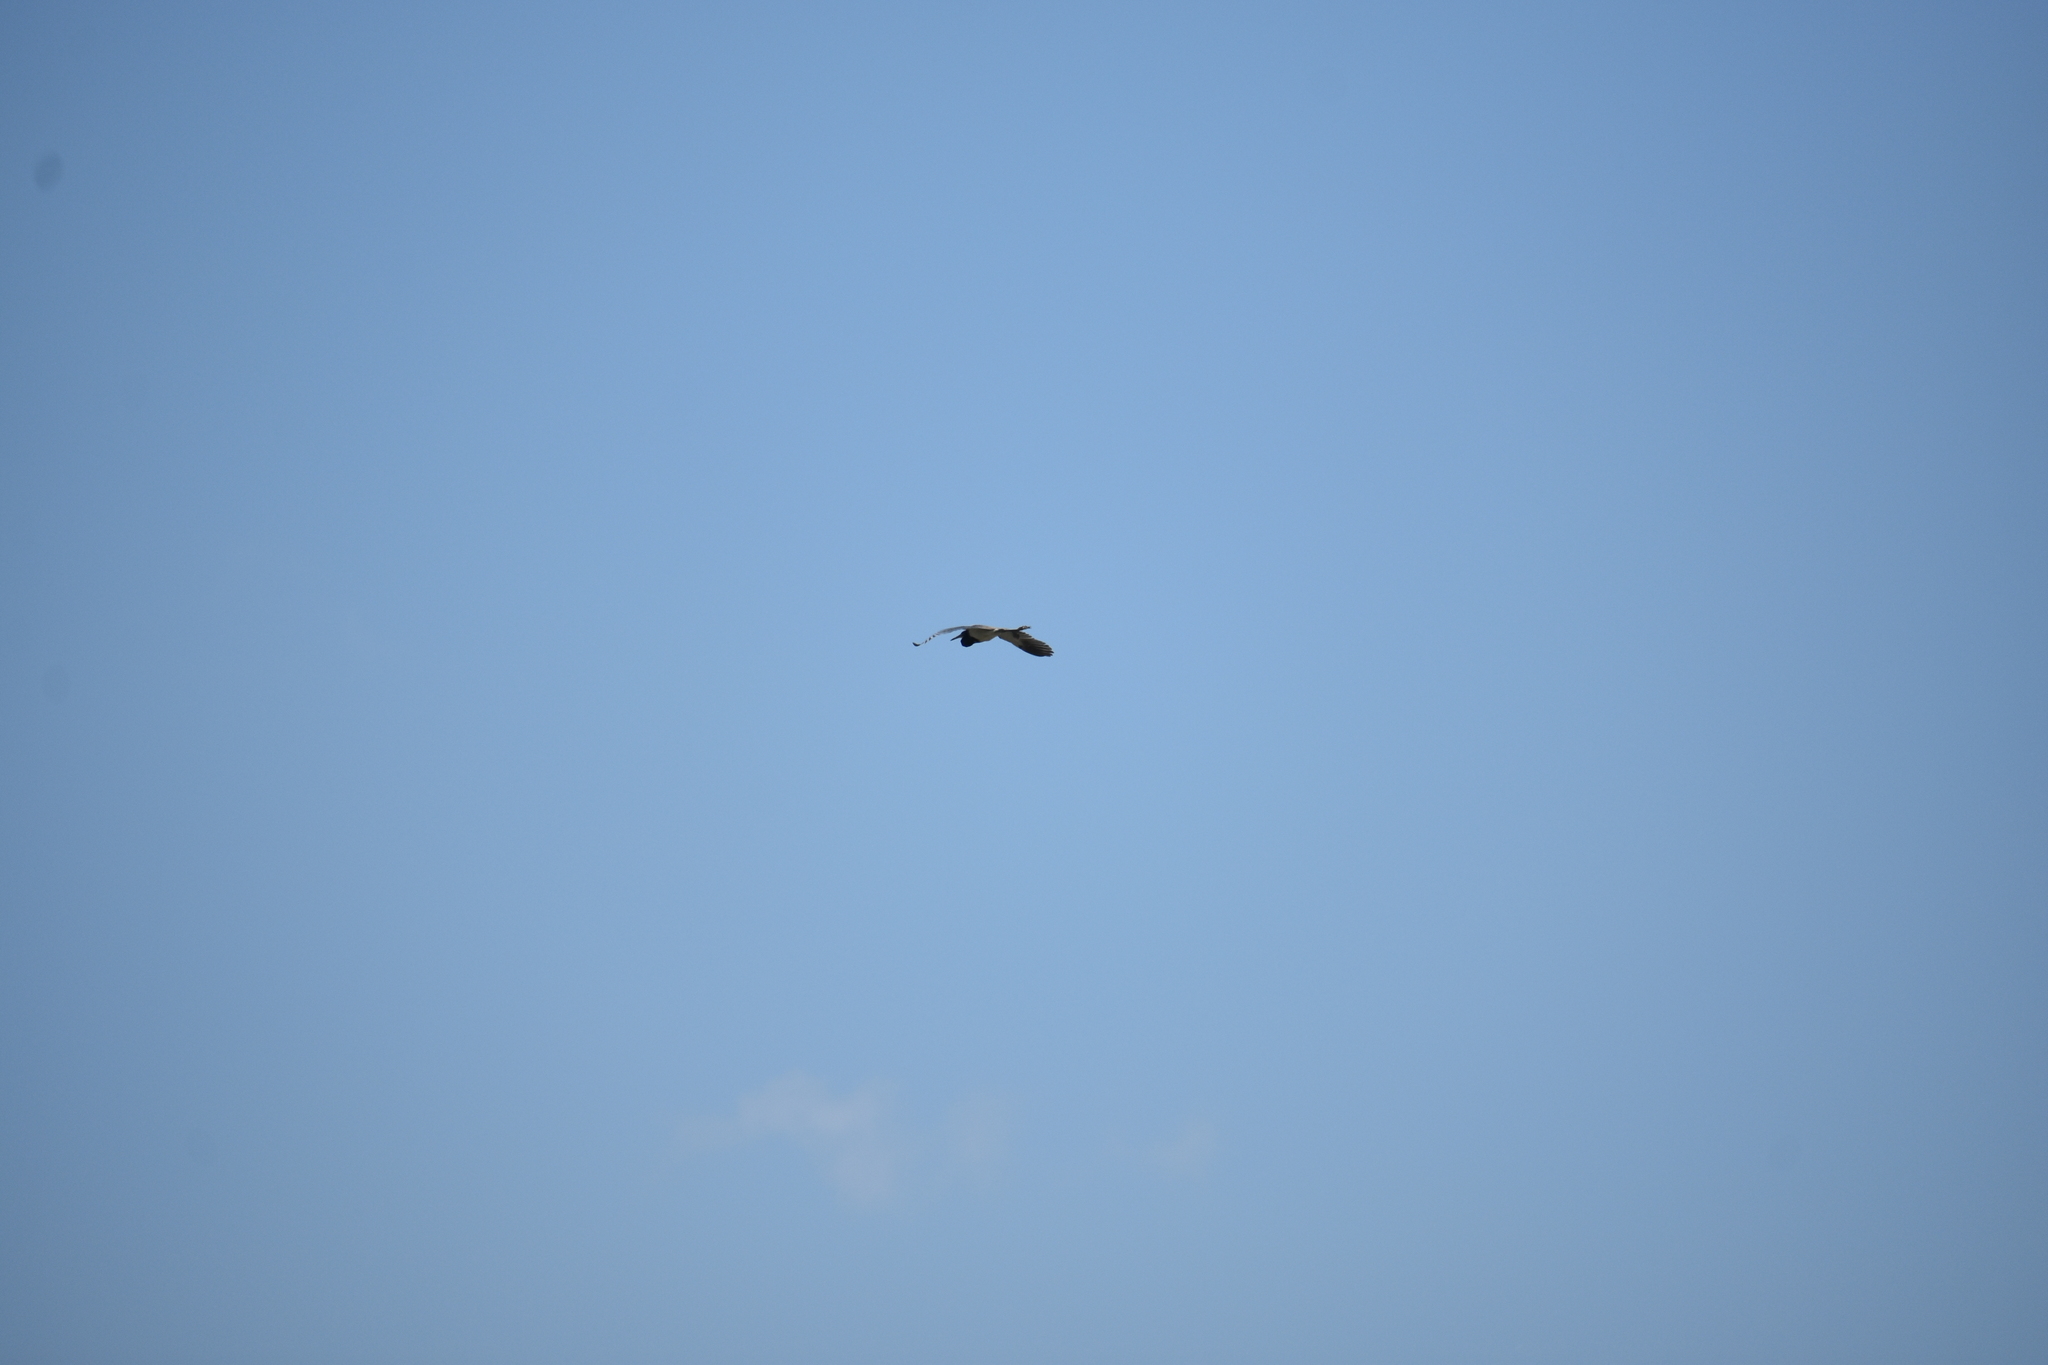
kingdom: Animalia
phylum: Chordata
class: Aves
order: Pelecaniformes
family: Ardeidae
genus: Egretta
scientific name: Egretta tricolor
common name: Tricolored heron
